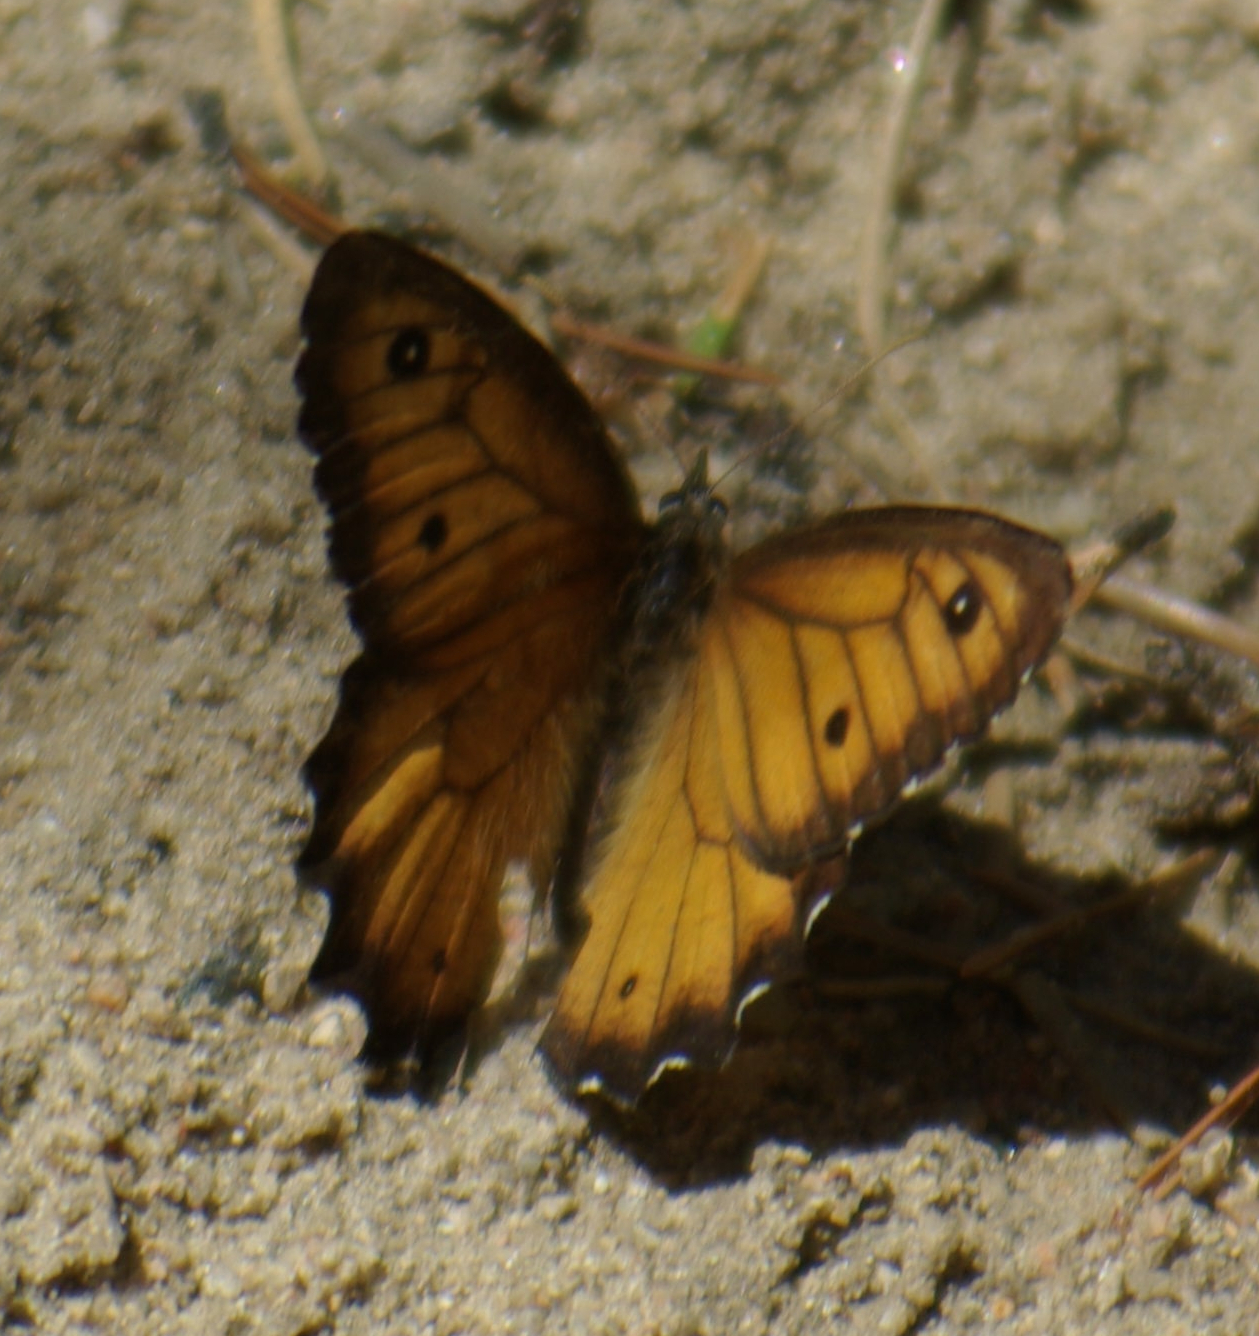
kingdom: Animalia
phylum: Arthropoda
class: Insecta
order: Lepidoptera
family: Nymphalidae
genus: Oeneis
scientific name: Oeneis macounii
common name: Macoun's arctic
